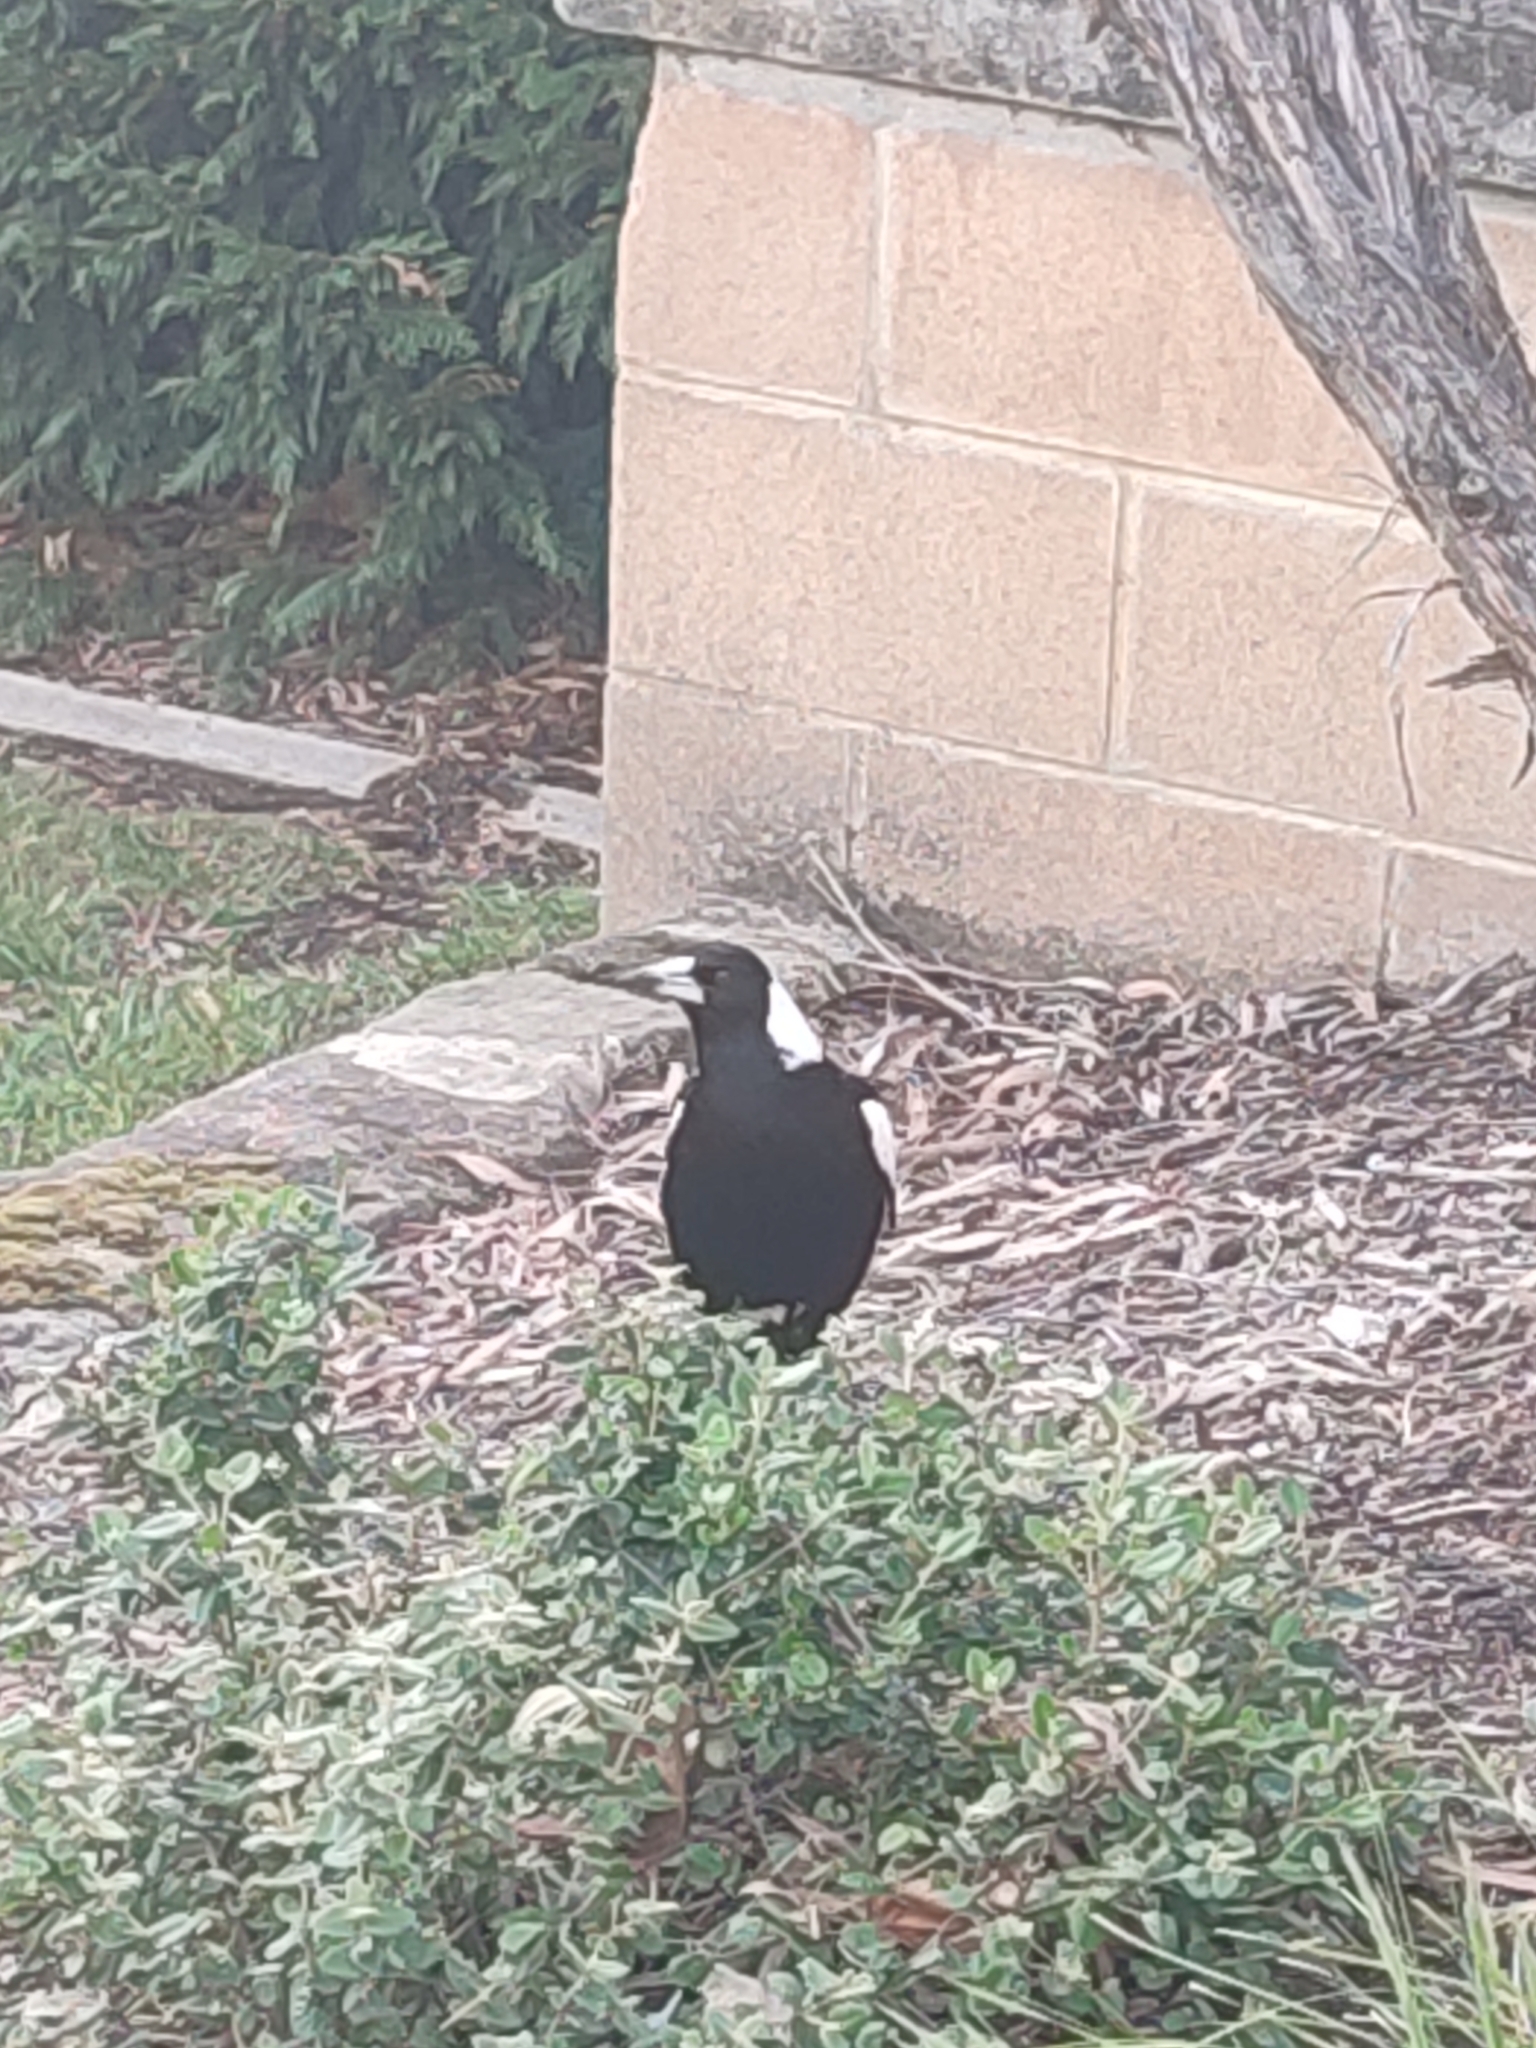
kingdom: Animalia
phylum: Chordata
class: Aves
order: Passeriformes
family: Cracticidae
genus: Gymnorhina
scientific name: Gymnorhina tibicen
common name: Australian magpie
